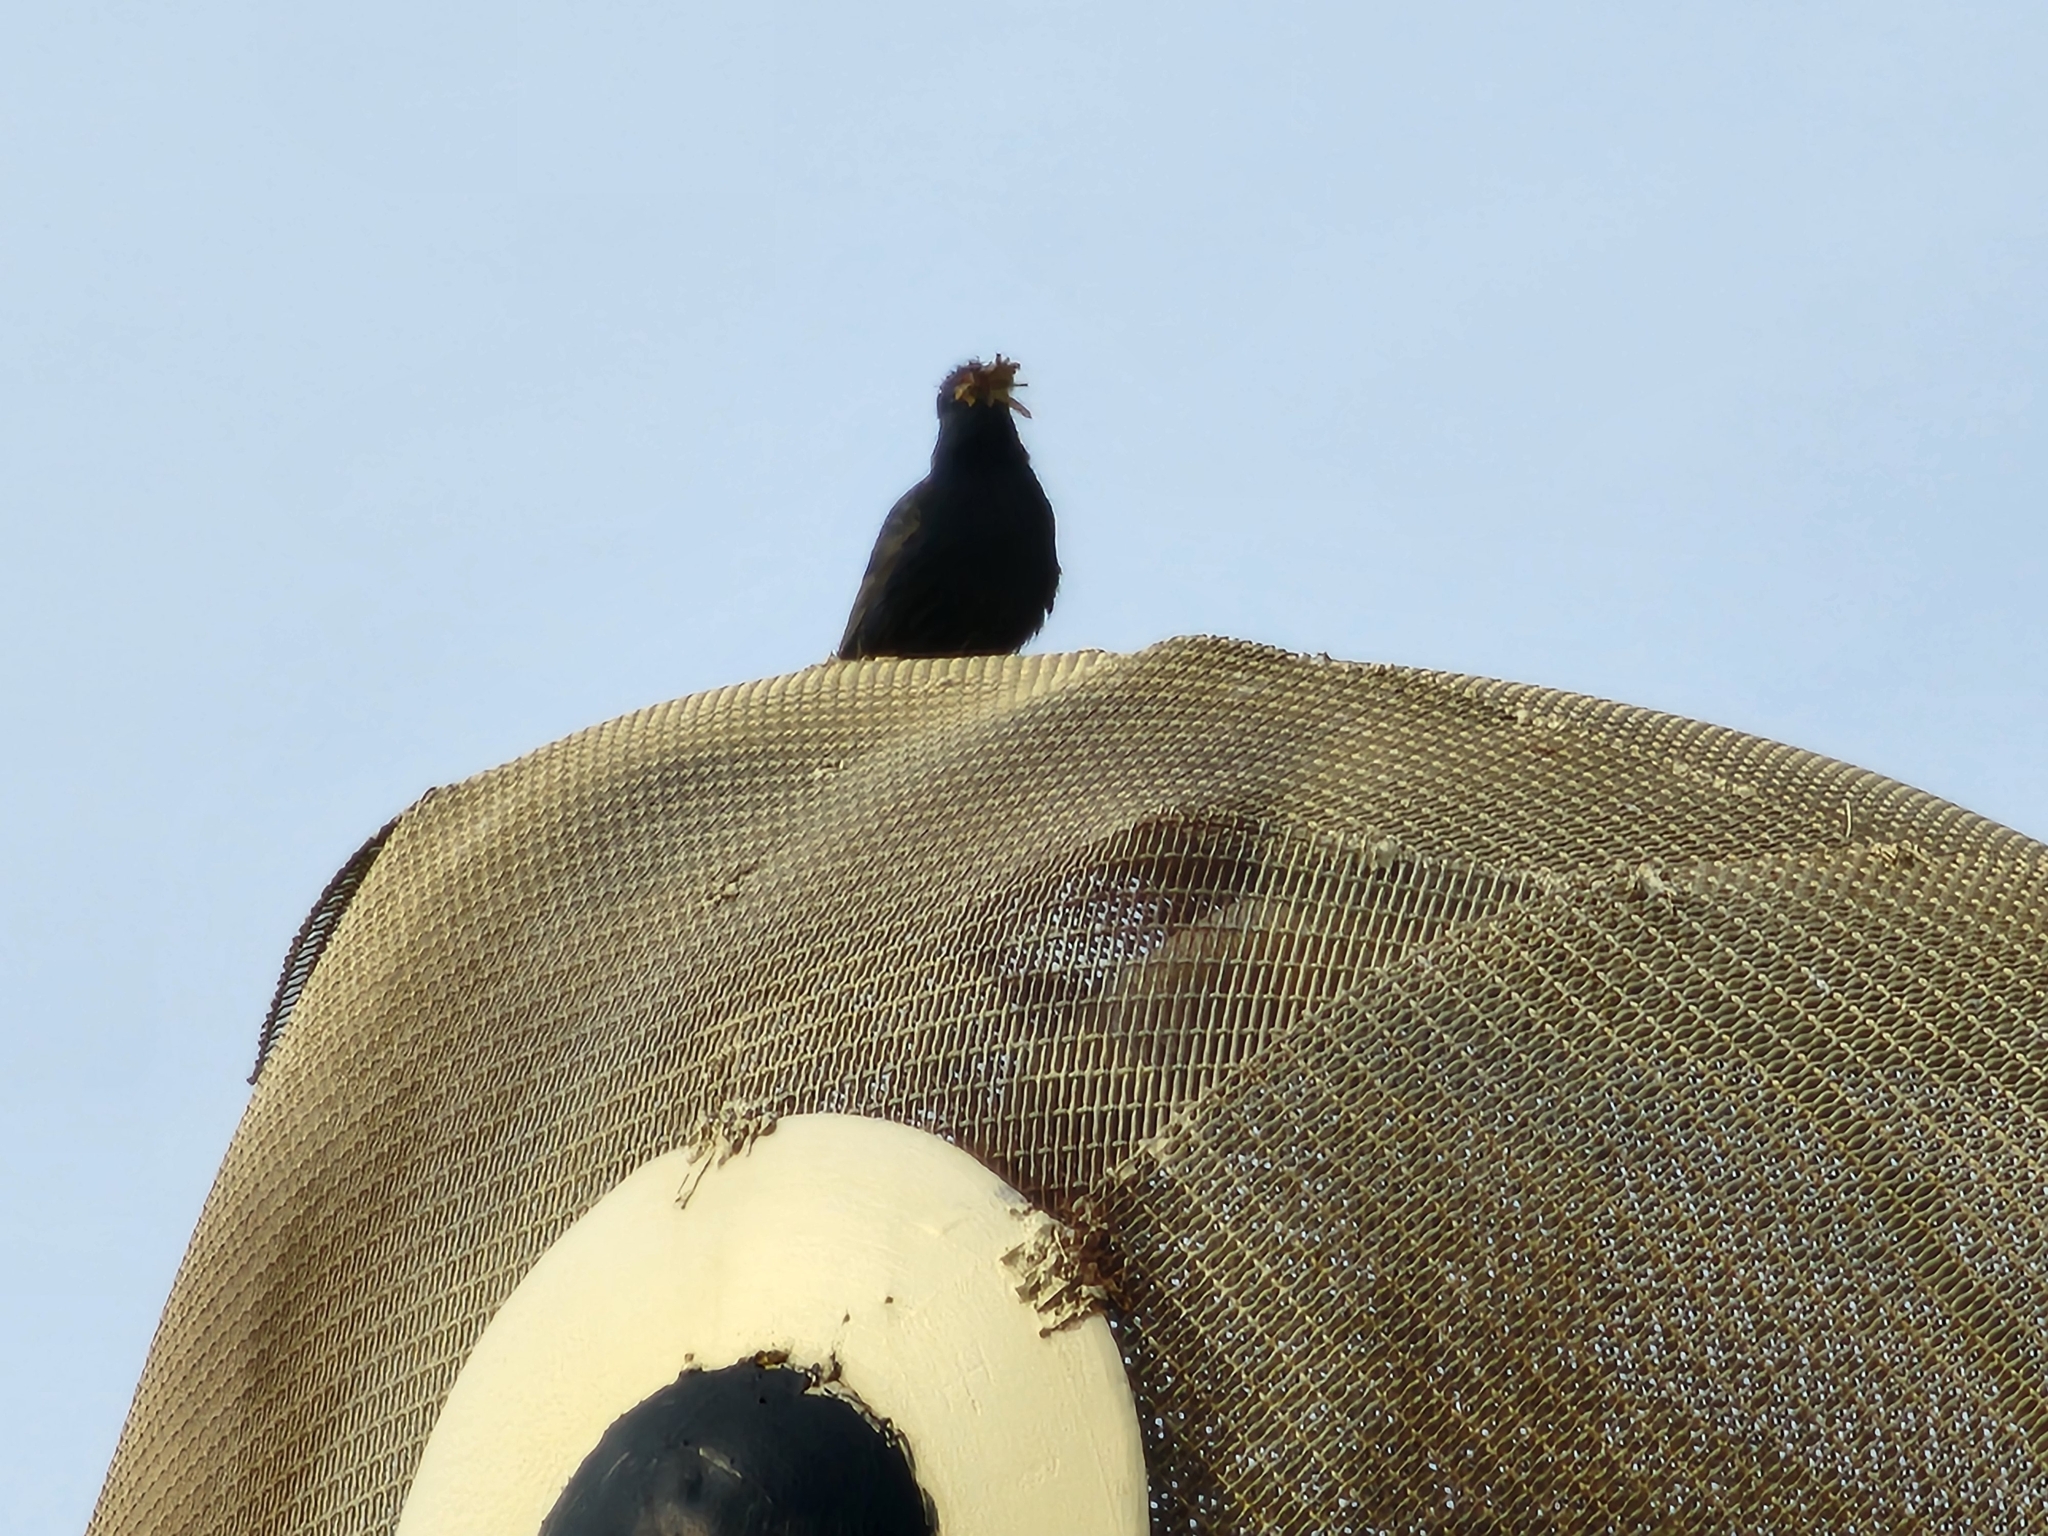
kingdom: Animalia
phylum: Chordata
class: Aves
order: Passeriformes
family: Sturnidae
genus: Sturnus
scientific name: Sturnus vulgaris
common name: Common starling
